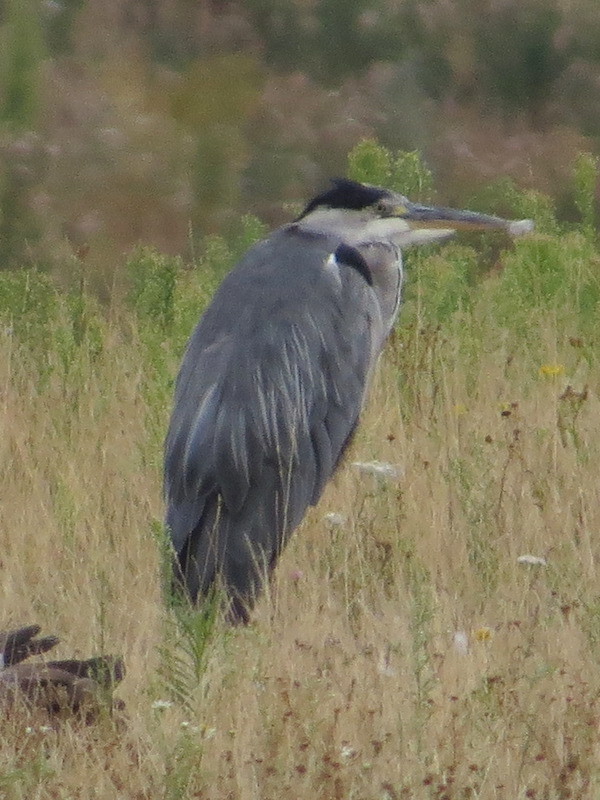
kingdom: Animalia
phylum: Chordata
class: Aves
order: Pelecaniformes
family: Ardeidae
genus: Ardea
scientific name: Ardea cinerea
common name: Grey heron
